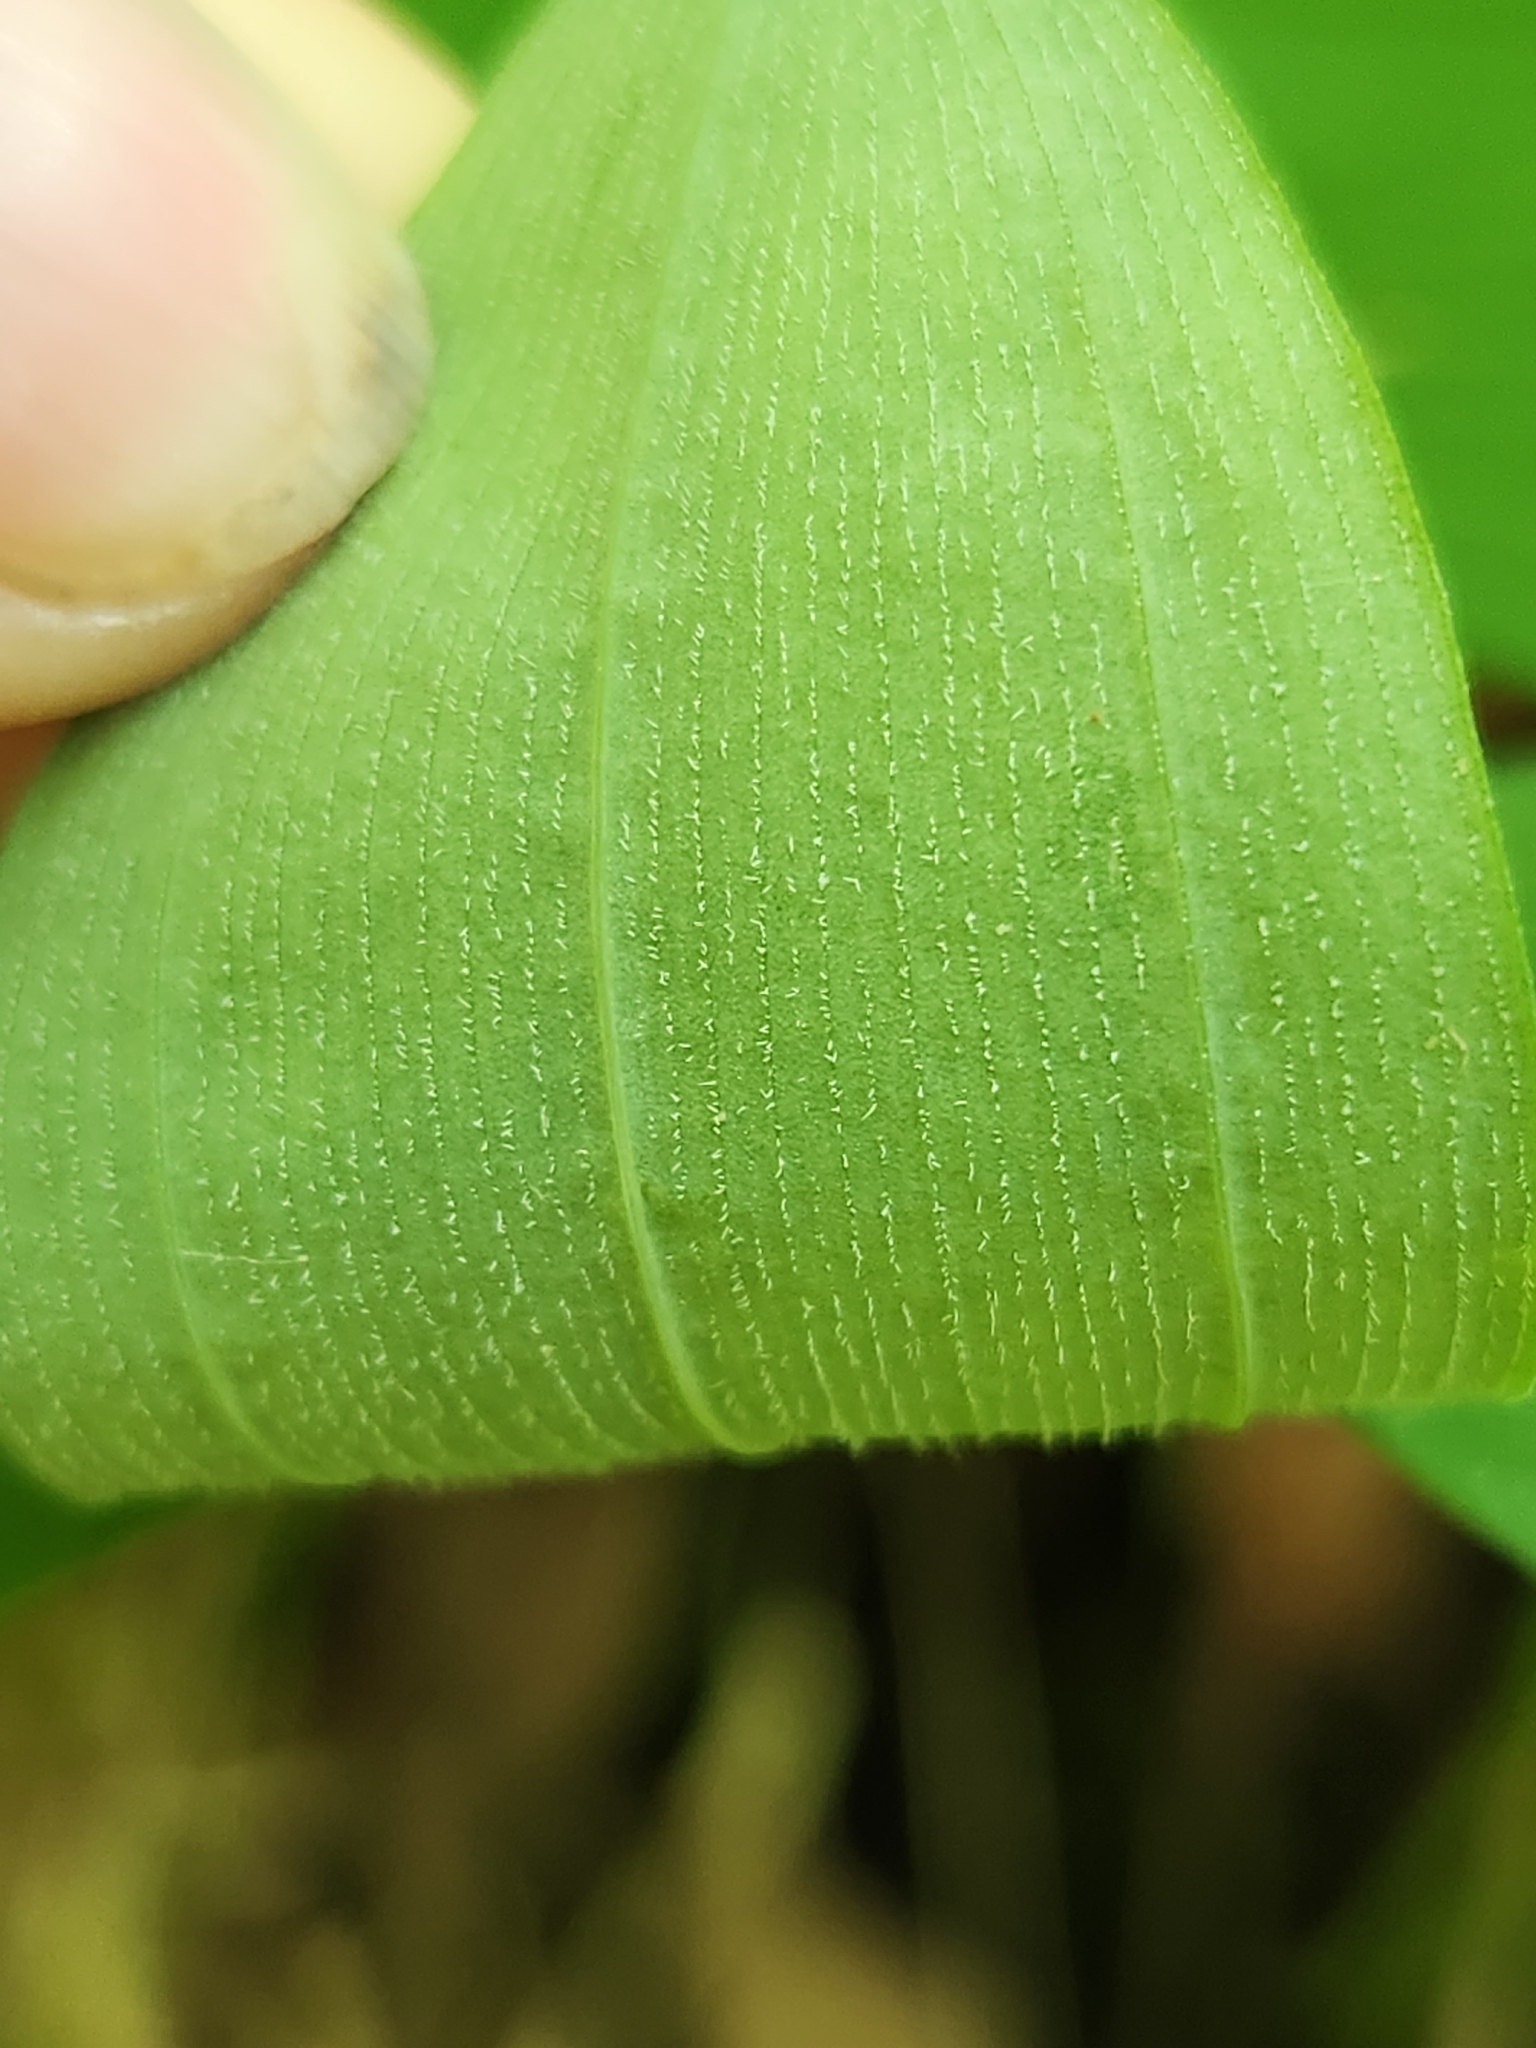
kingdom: Plantae
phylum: Tracheophyta
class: Liliopsida
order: Asparagales
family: Asparagaceae
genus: Polygonatum
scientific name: Polygonatum pubescens
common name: Downy solomon's seal
